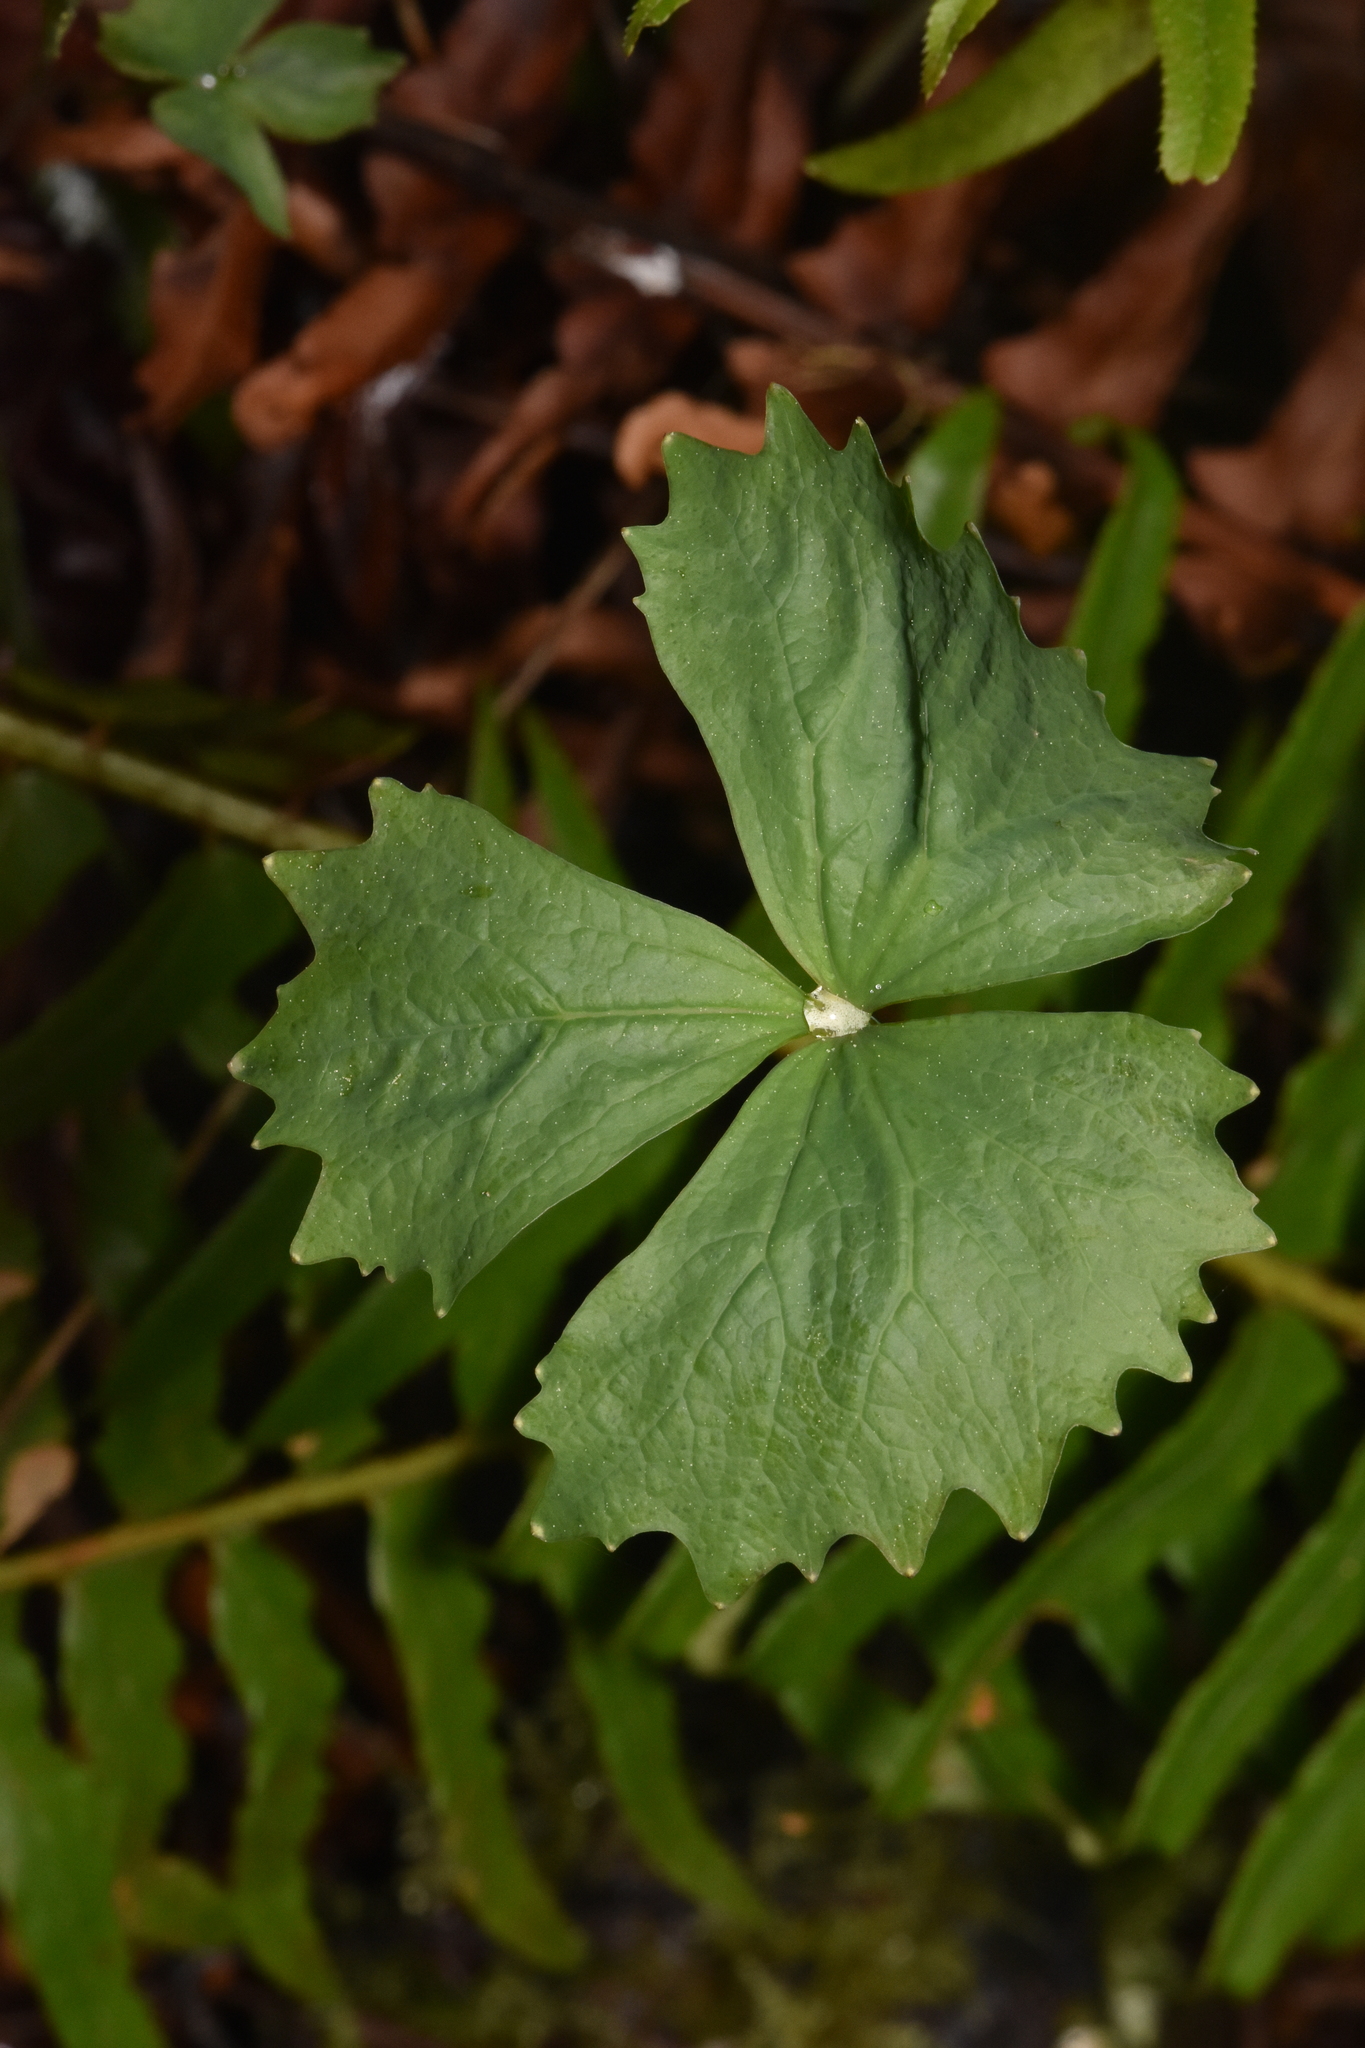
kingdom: Plantae
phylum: Tracheophyta
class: Magnoliopsida
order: Ranunculales
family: Berberidaceae
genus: Achlys
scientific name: Achlys californica
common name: California deer-foot
